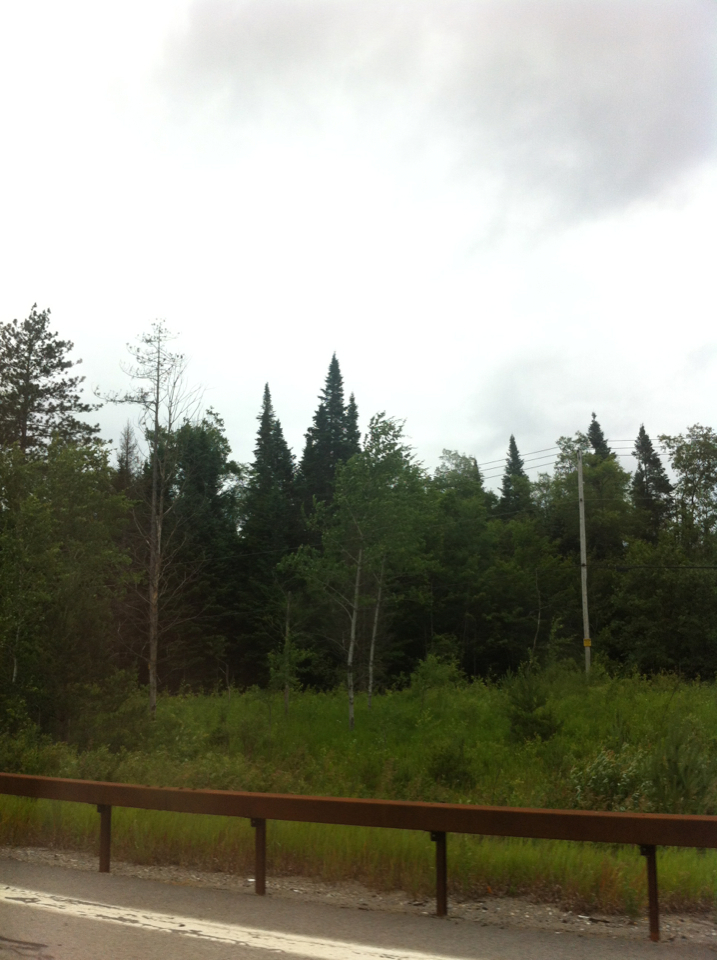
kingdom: Plantae
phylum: Tracheophyta
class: Pinopsida
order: Pinales
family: Pinaceae
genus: Abies
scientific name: Abies balsamea
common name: Balsam fir
